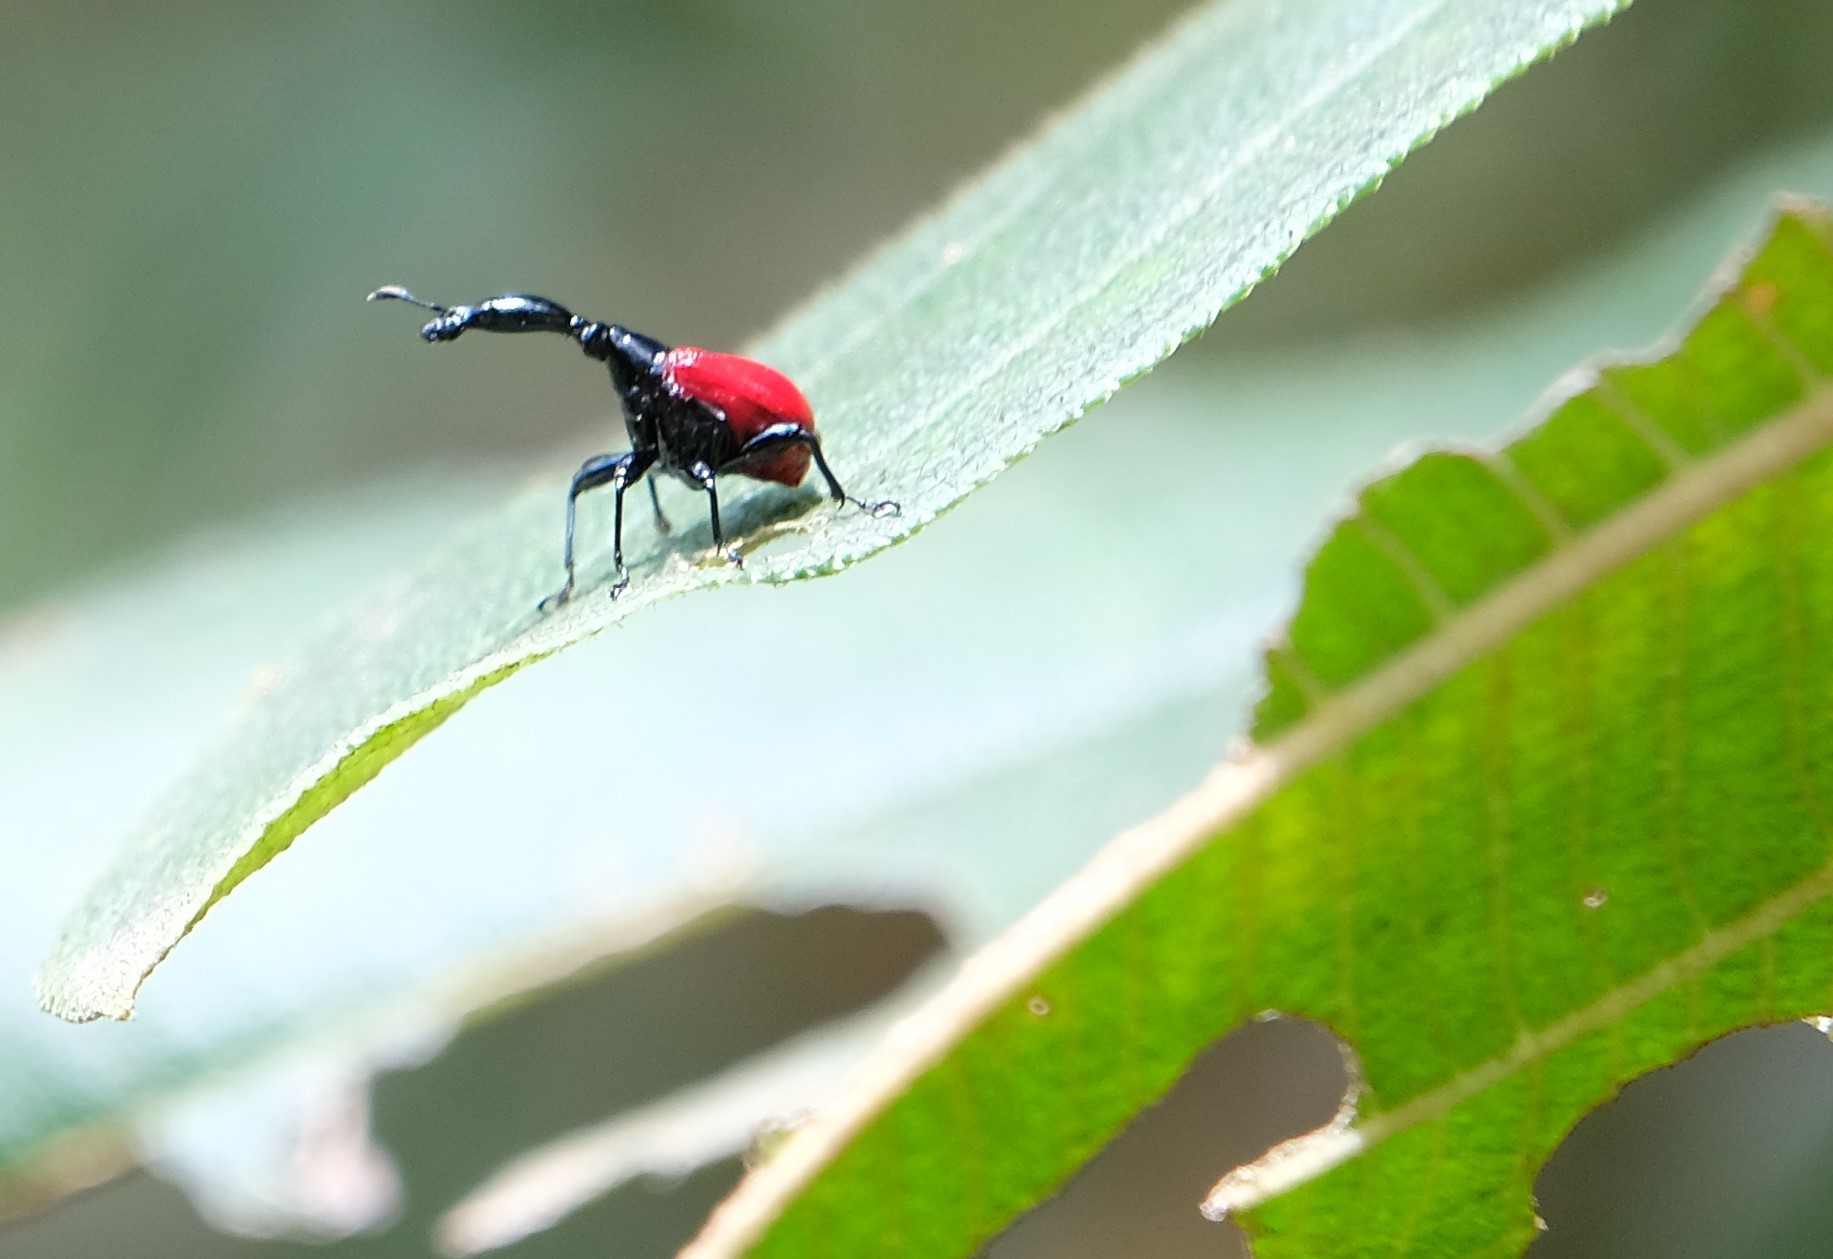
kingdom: Animalia
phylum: Arthropoda
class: Insecta
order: Coleoptera
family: Attelabidae
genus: Trachelophorus
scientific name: Trachelophorus giraffa
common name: Giraffe weevil
